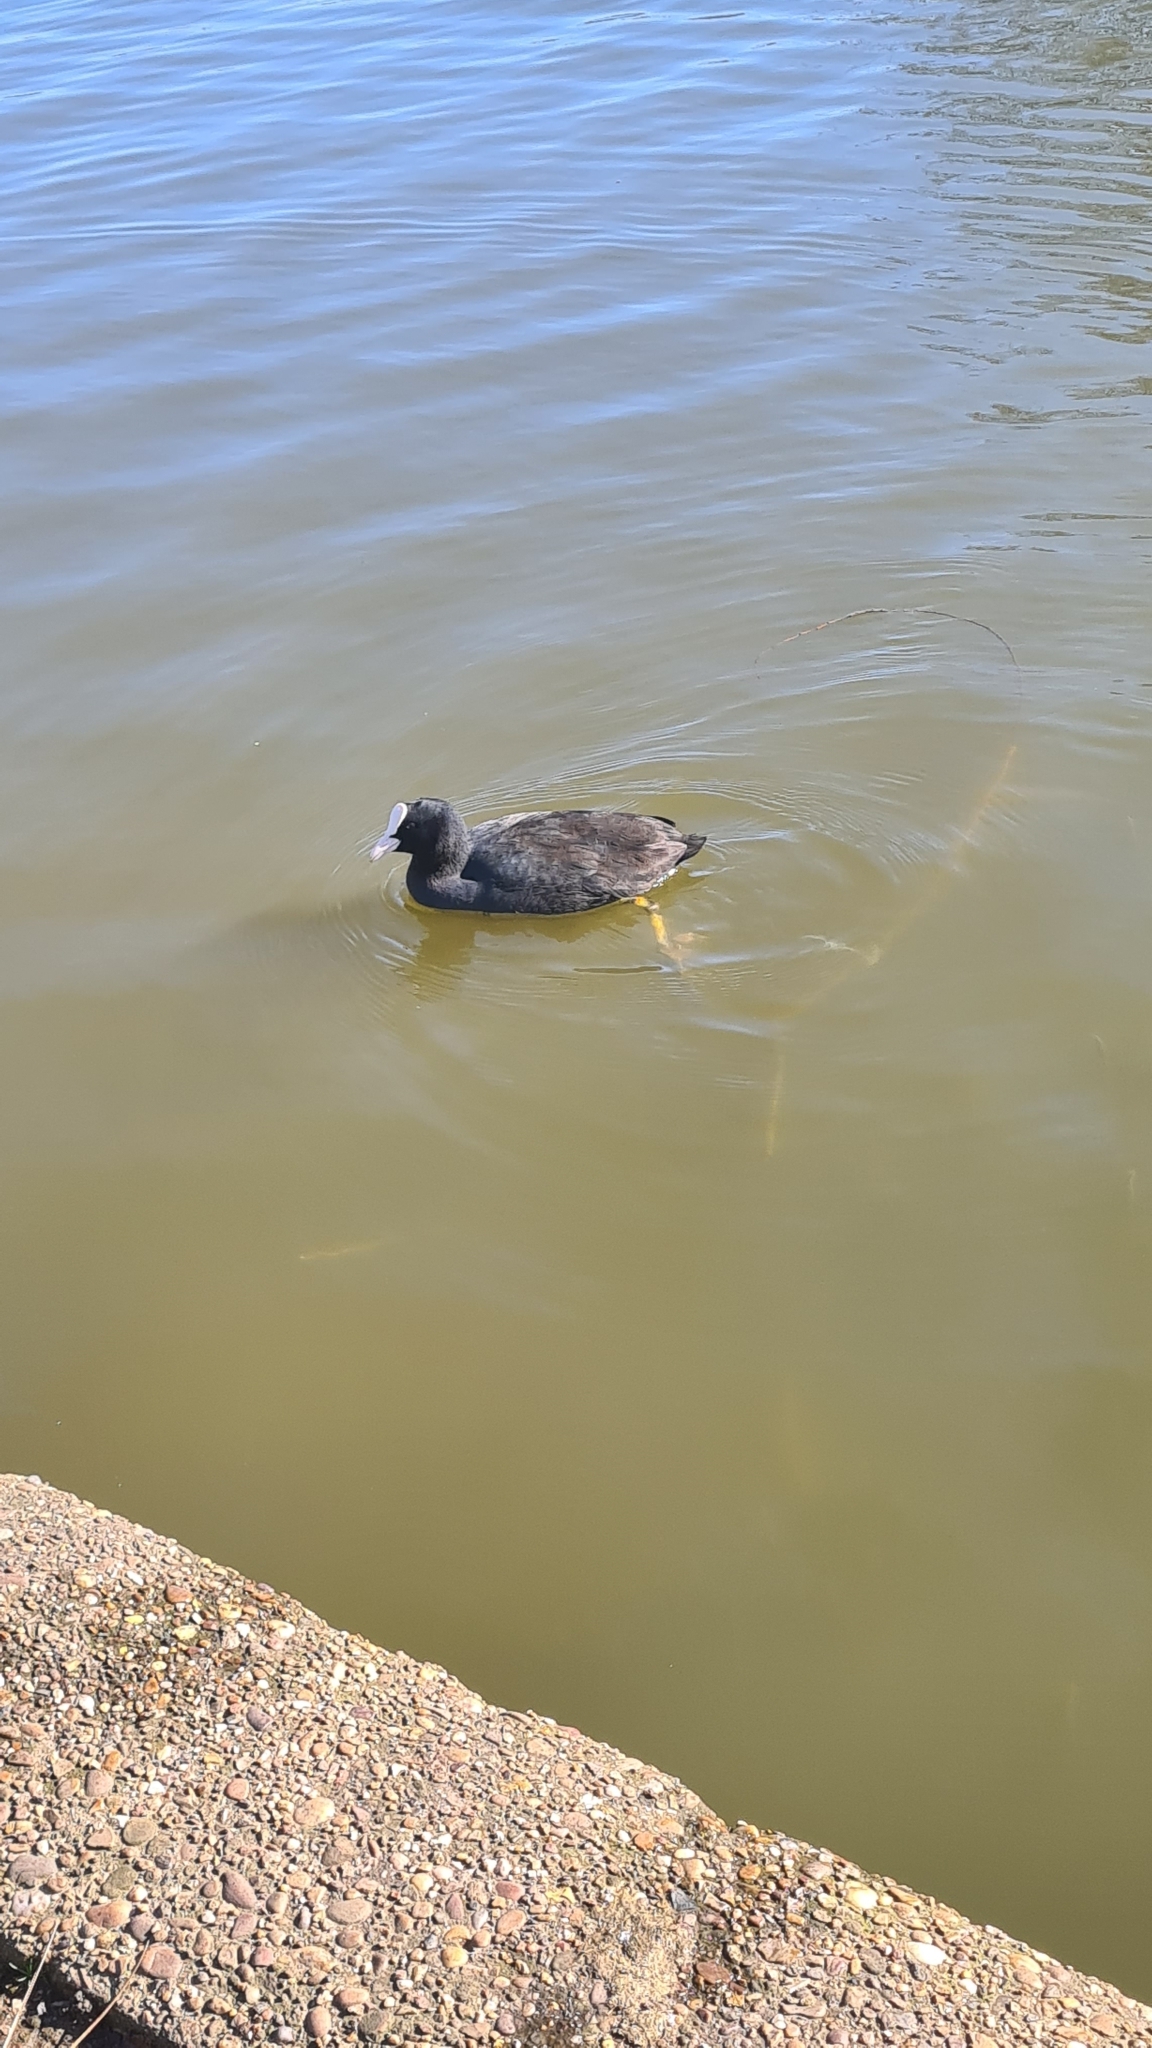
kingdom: Animalia
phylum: Chordata
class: Aves
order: Gruiformes
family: Rallidae
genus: Fulica
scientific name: Fulica atra
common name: Eurasian coot
